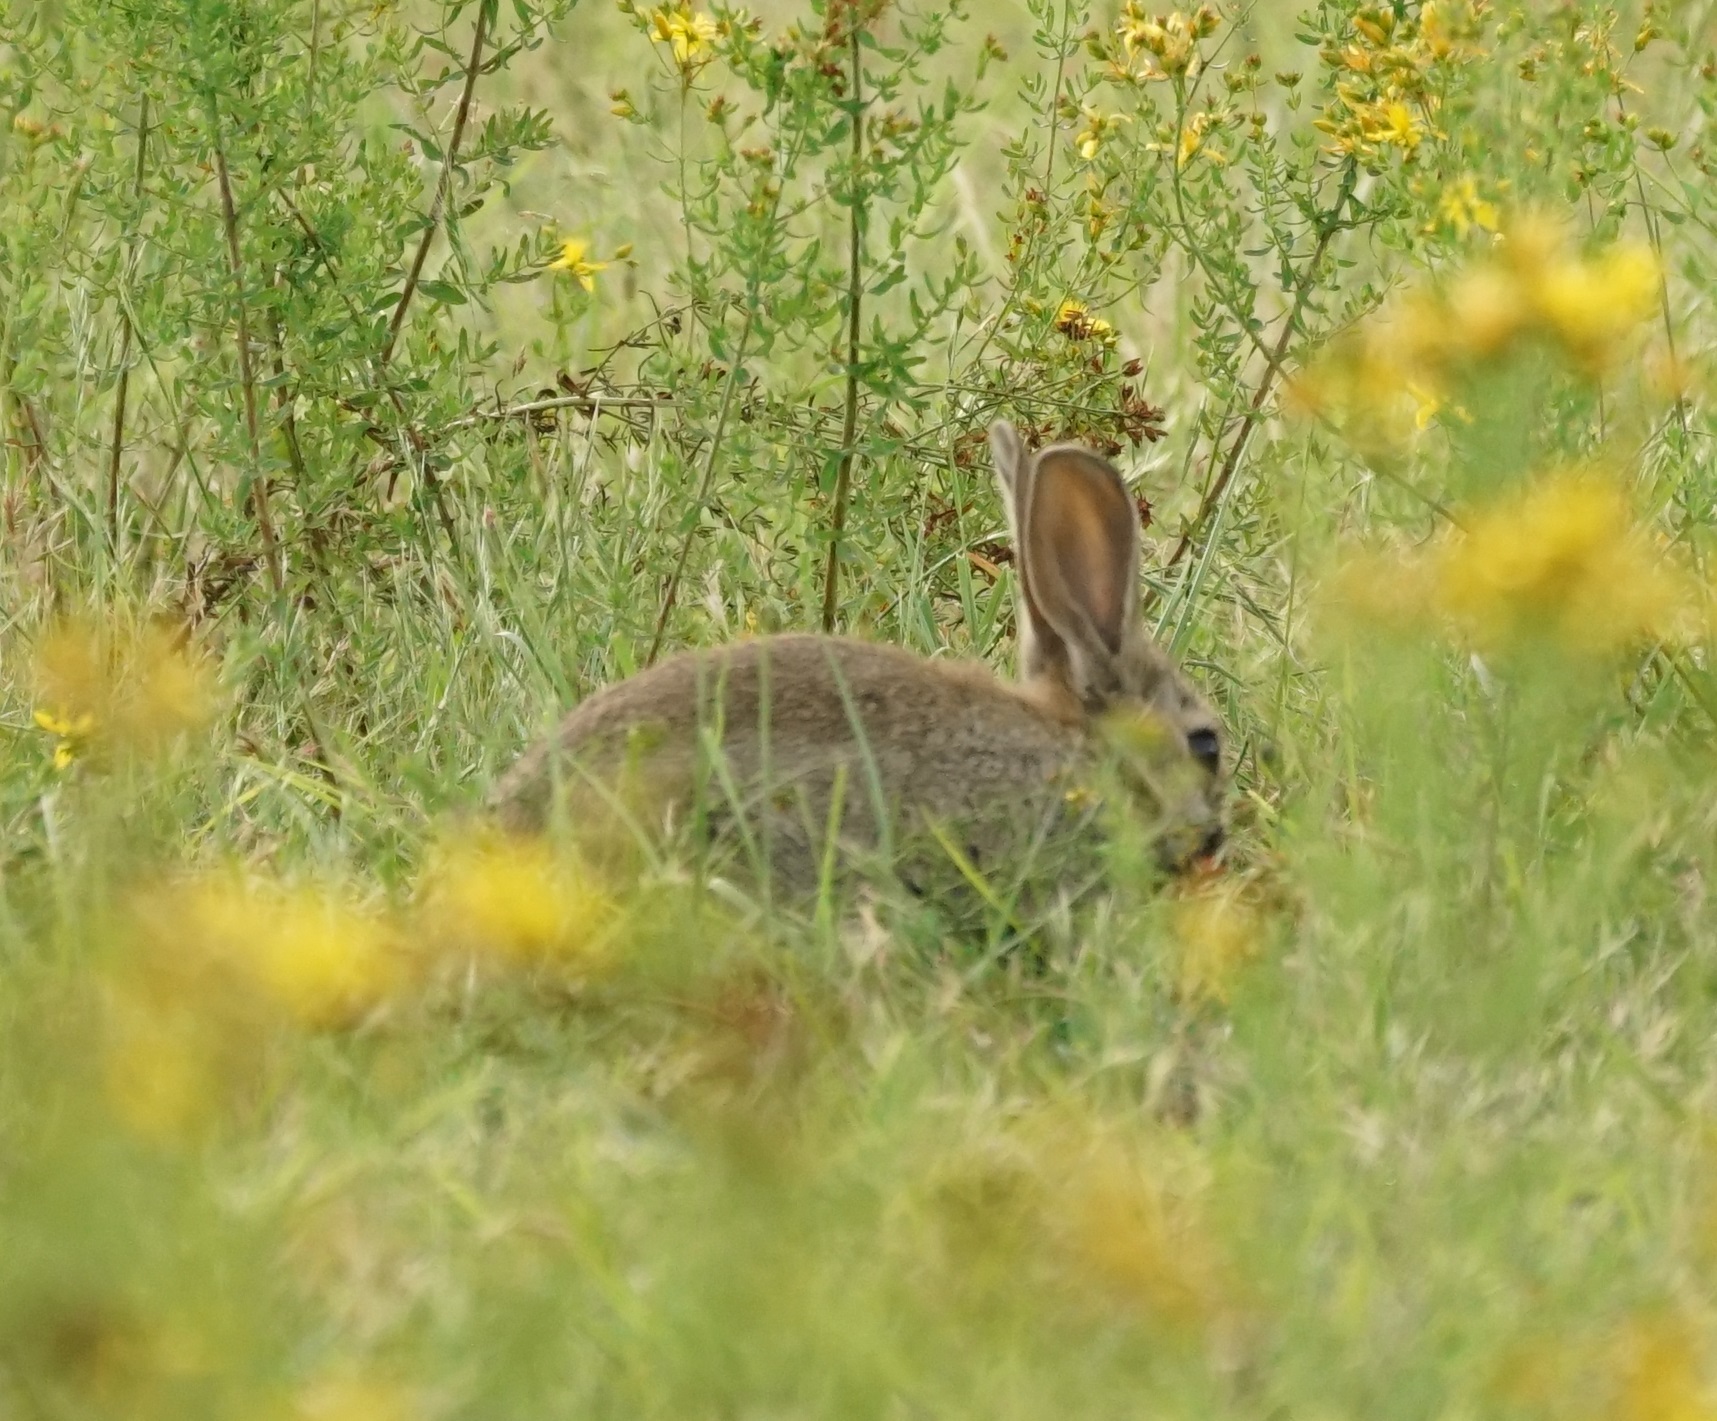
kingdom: Animalia
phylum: Chordata
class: Mammalia
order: Lagomorpha
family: Leporidae
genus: Oryctolagus
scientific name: Oryctolagus cuniculus
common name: European rabbit
